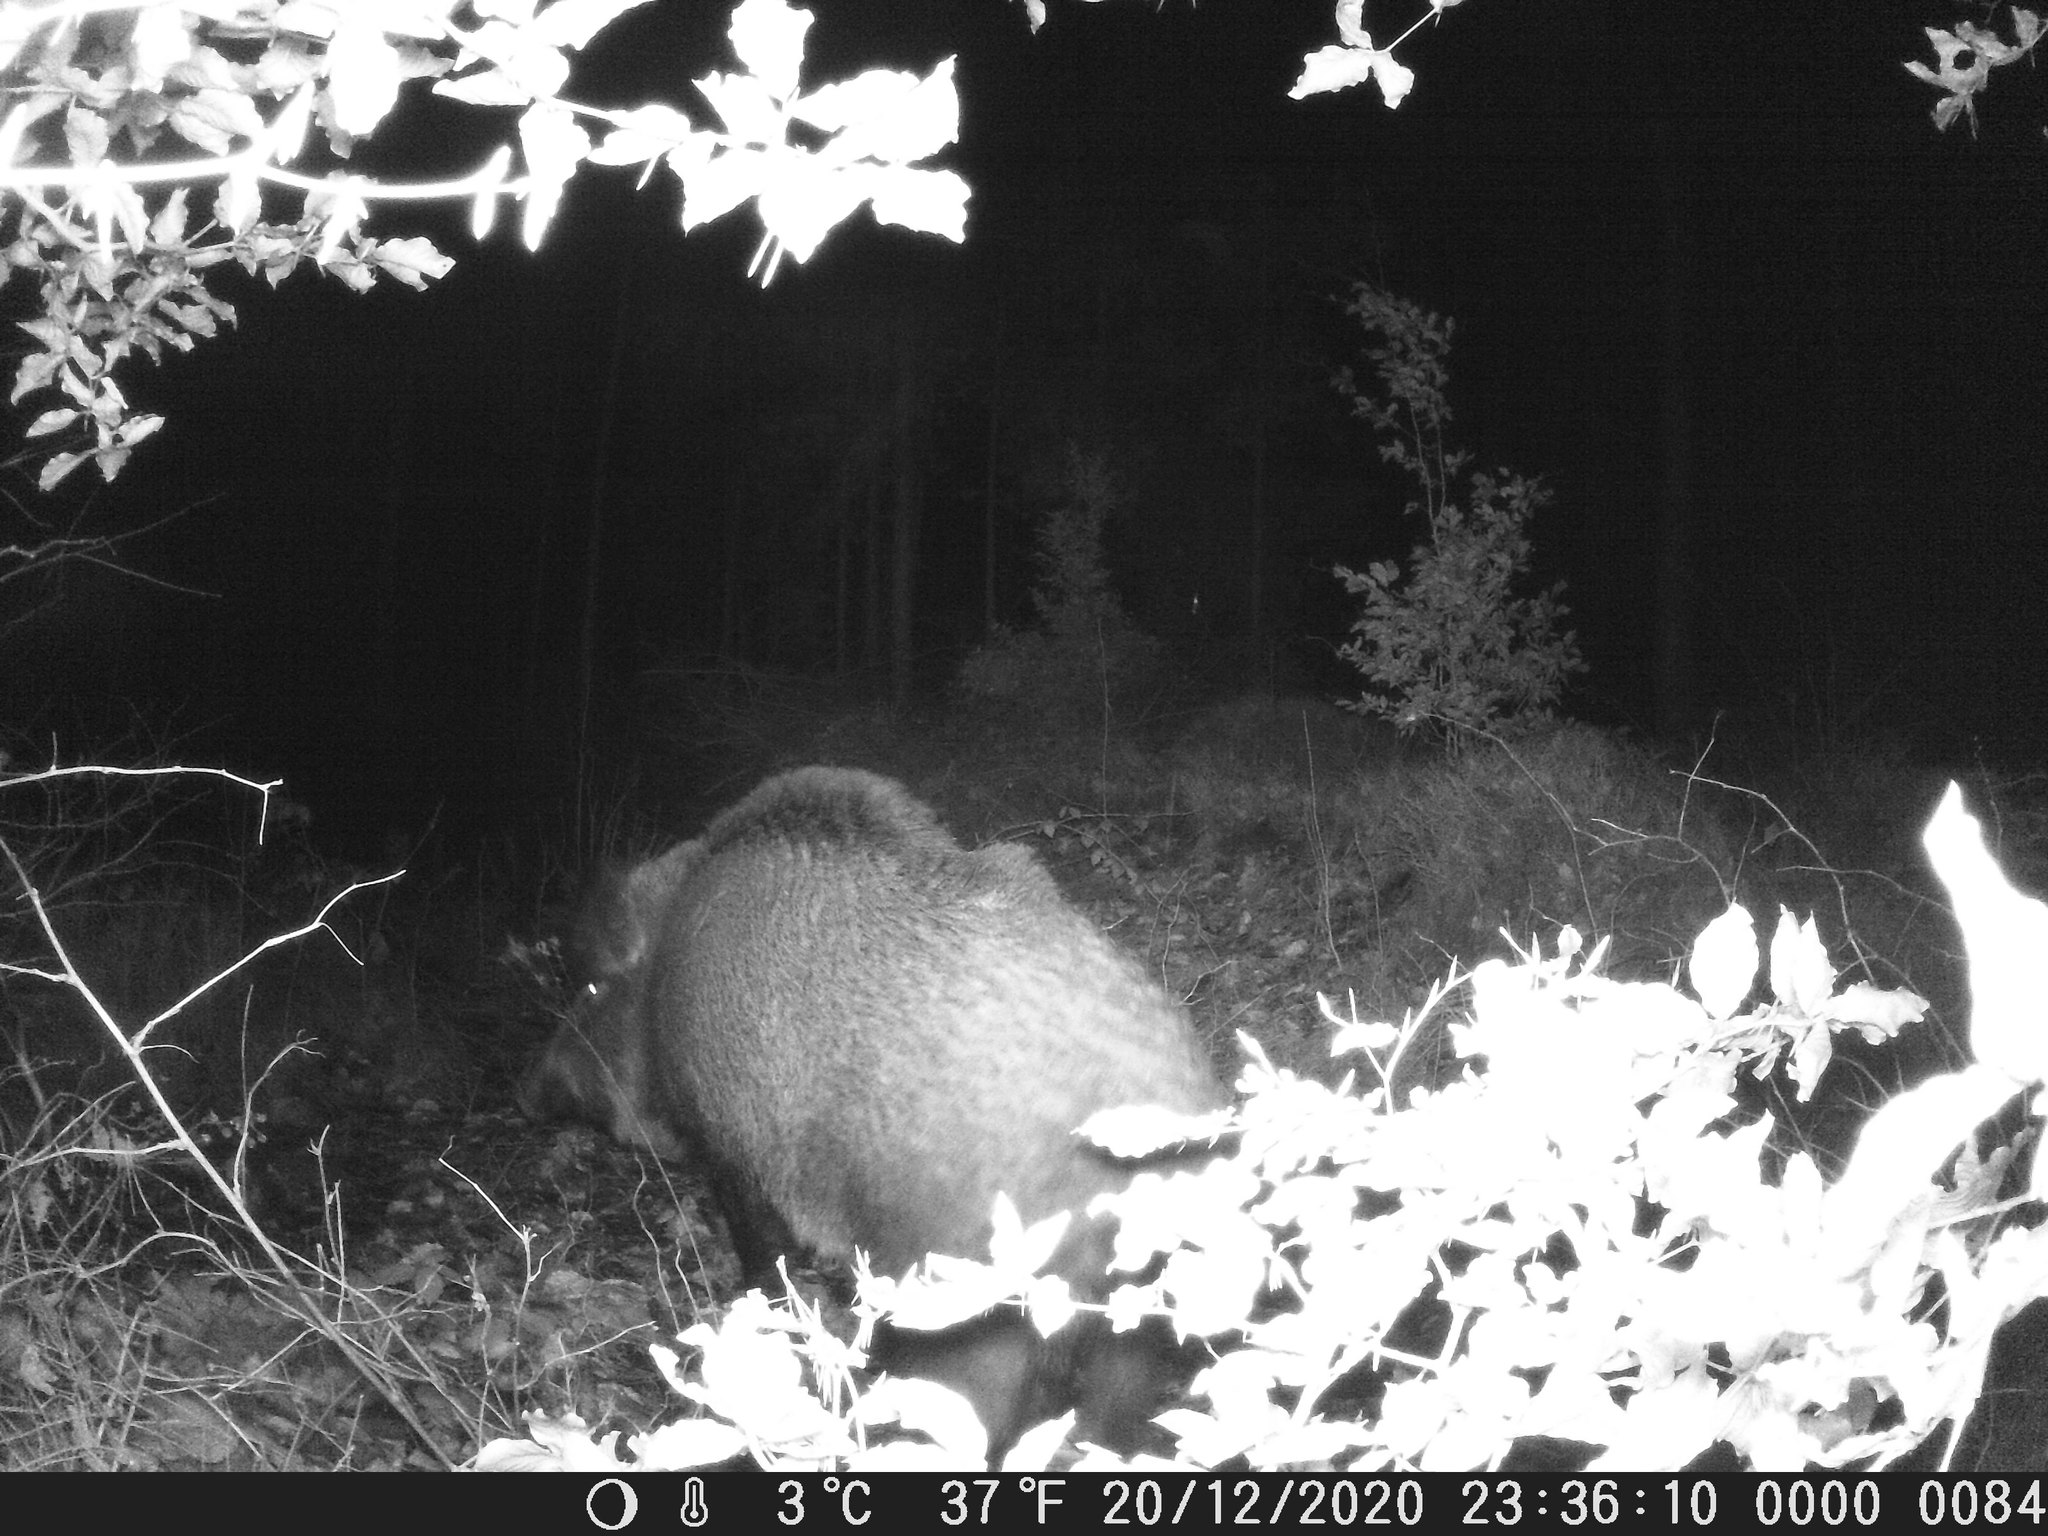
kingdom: Animalia
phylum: Chordata
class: Mammalia
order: Artiodactyla
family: Suidae
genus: Sus
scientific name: Sus scrofa
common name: Wild boar
